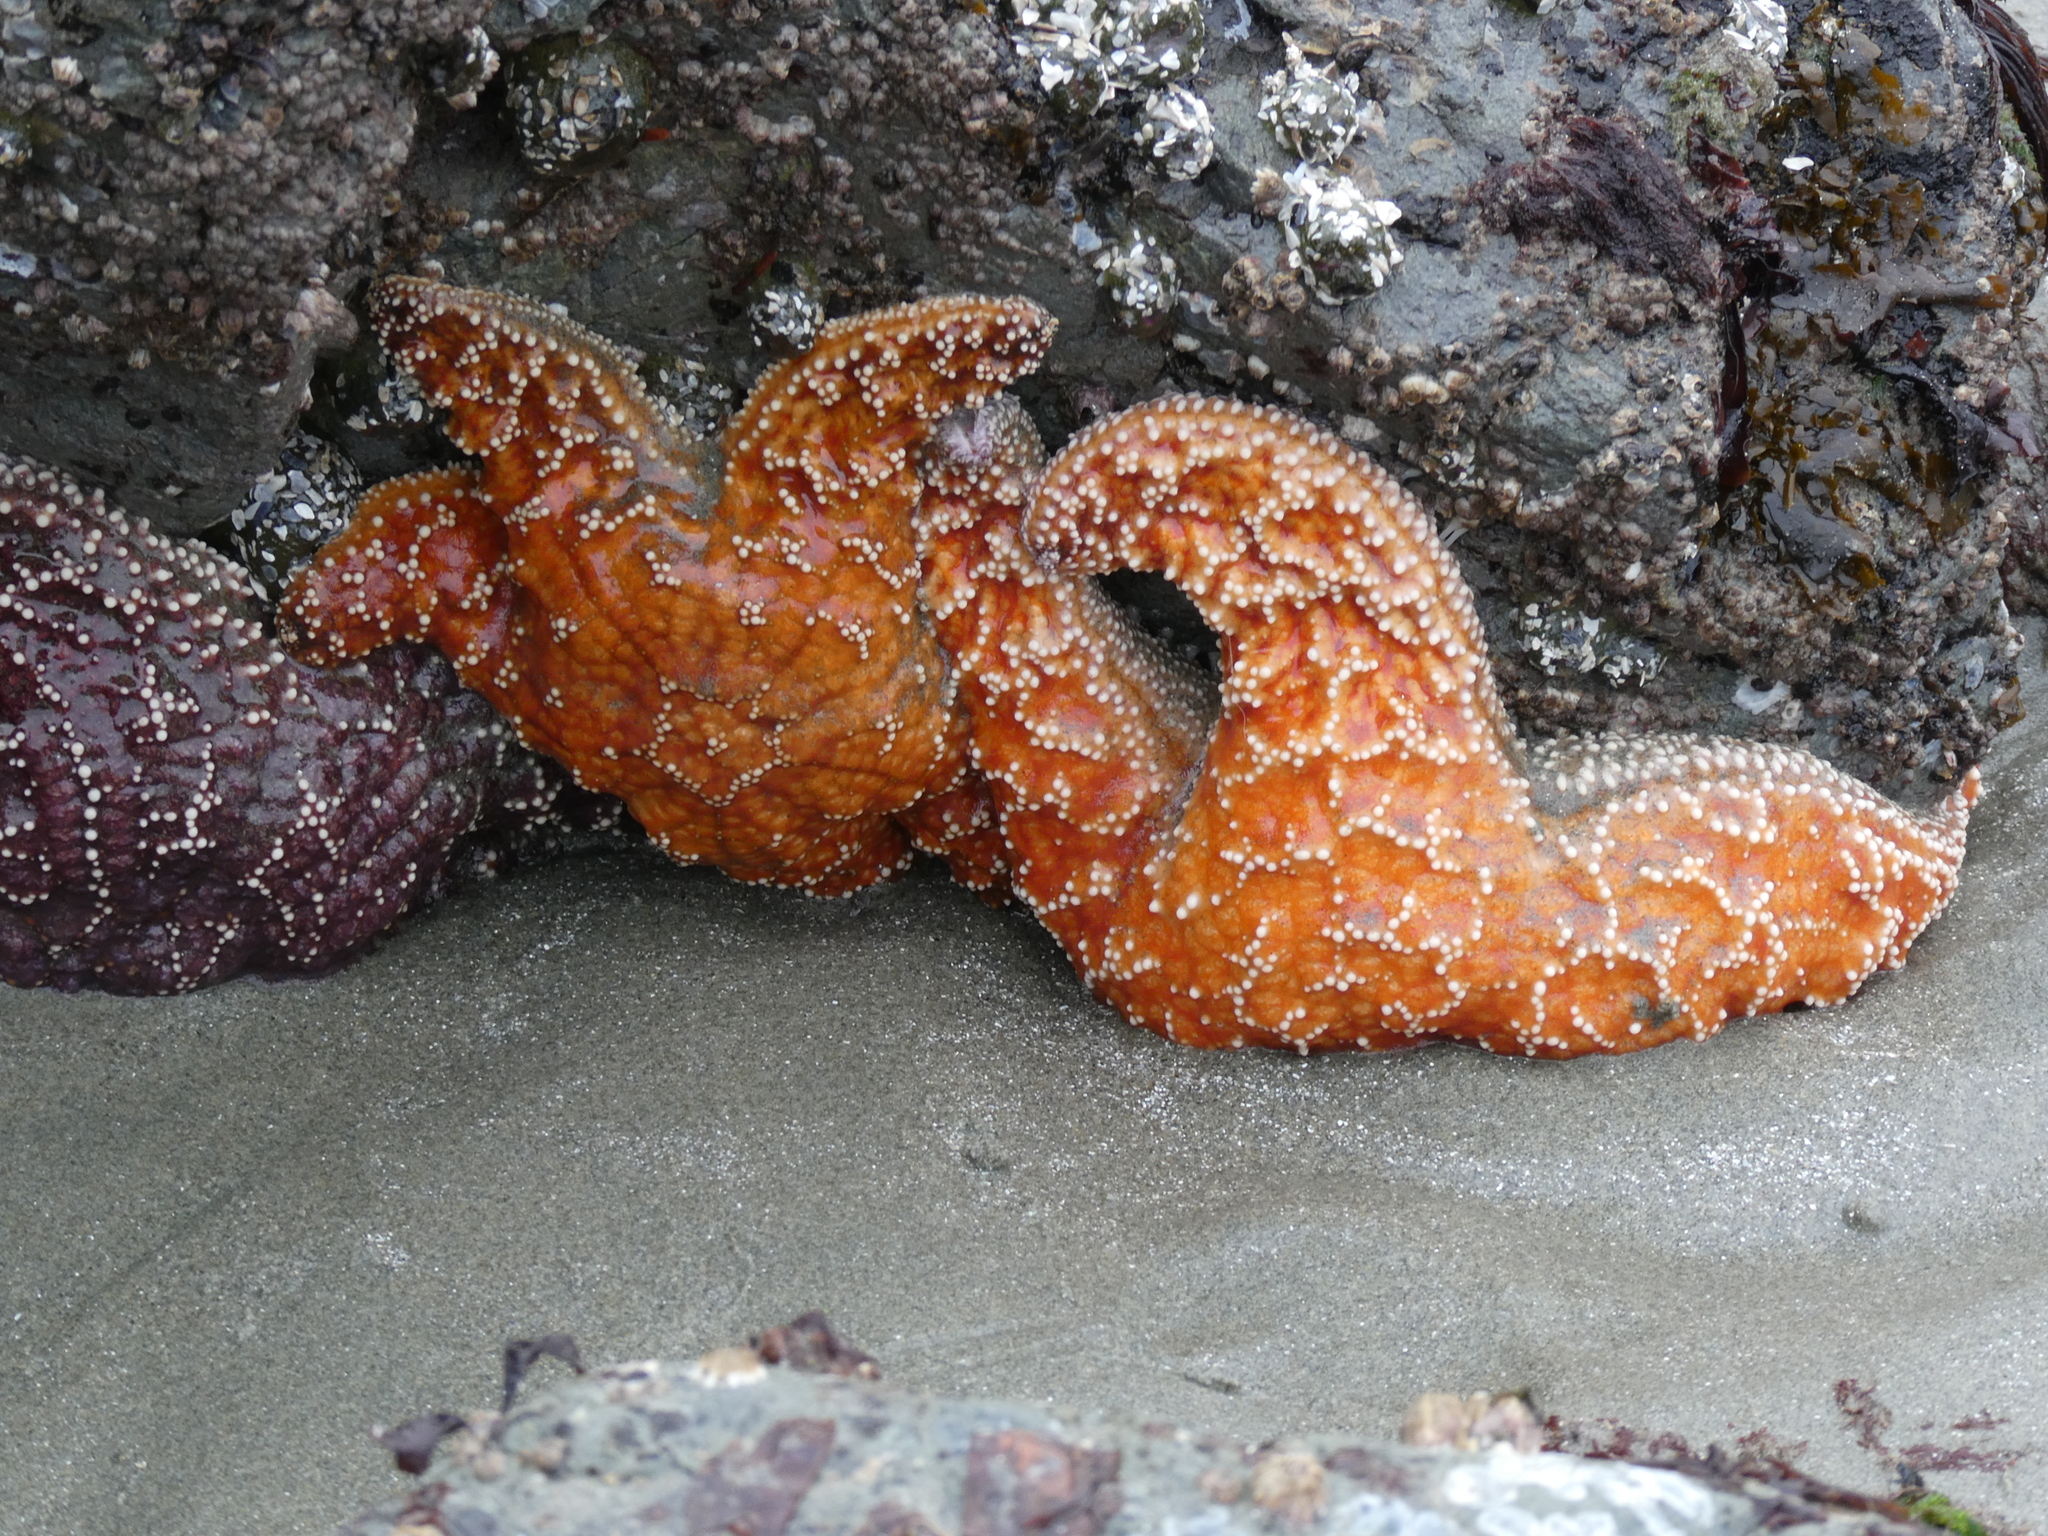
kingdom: Animalia
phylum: Echinodermata
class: Asteroidea
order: Forcipulatida
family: Asteriidae
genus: Pisaster
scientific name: Pisaster ochraceus
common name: Ochre stars
